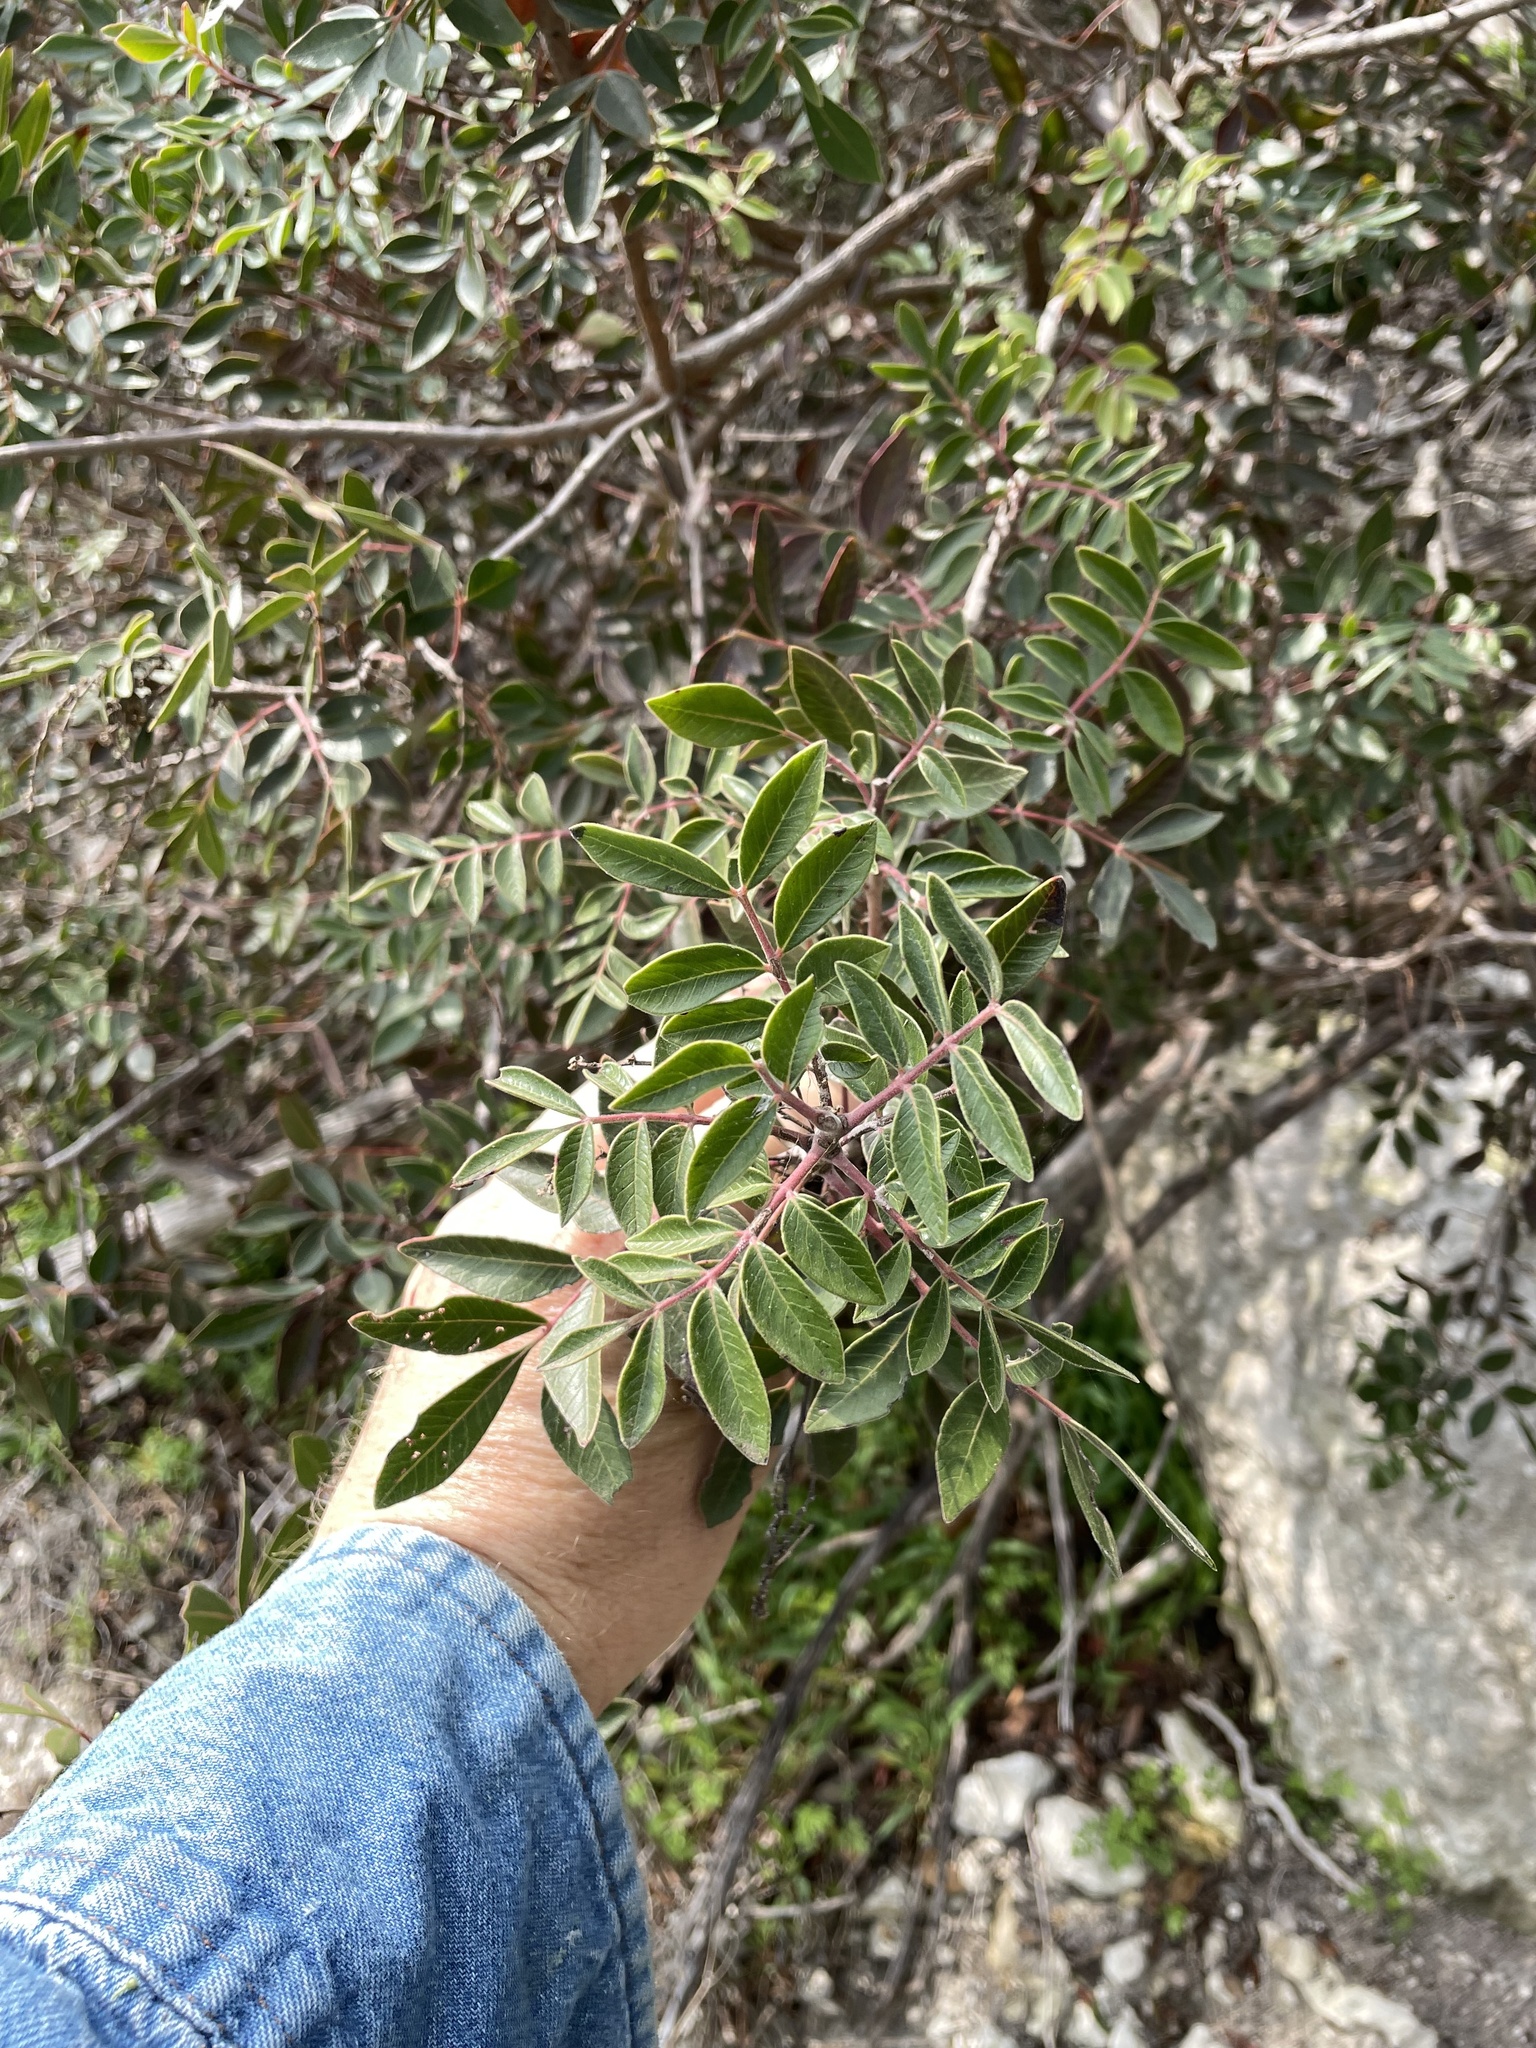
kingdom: Plantae
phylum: Tracheophyta
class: Magnoliopsida
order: Sapindales
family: Anacardiaceae
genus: Rhus
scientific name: Rhus virens
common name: Evergreen sumac
